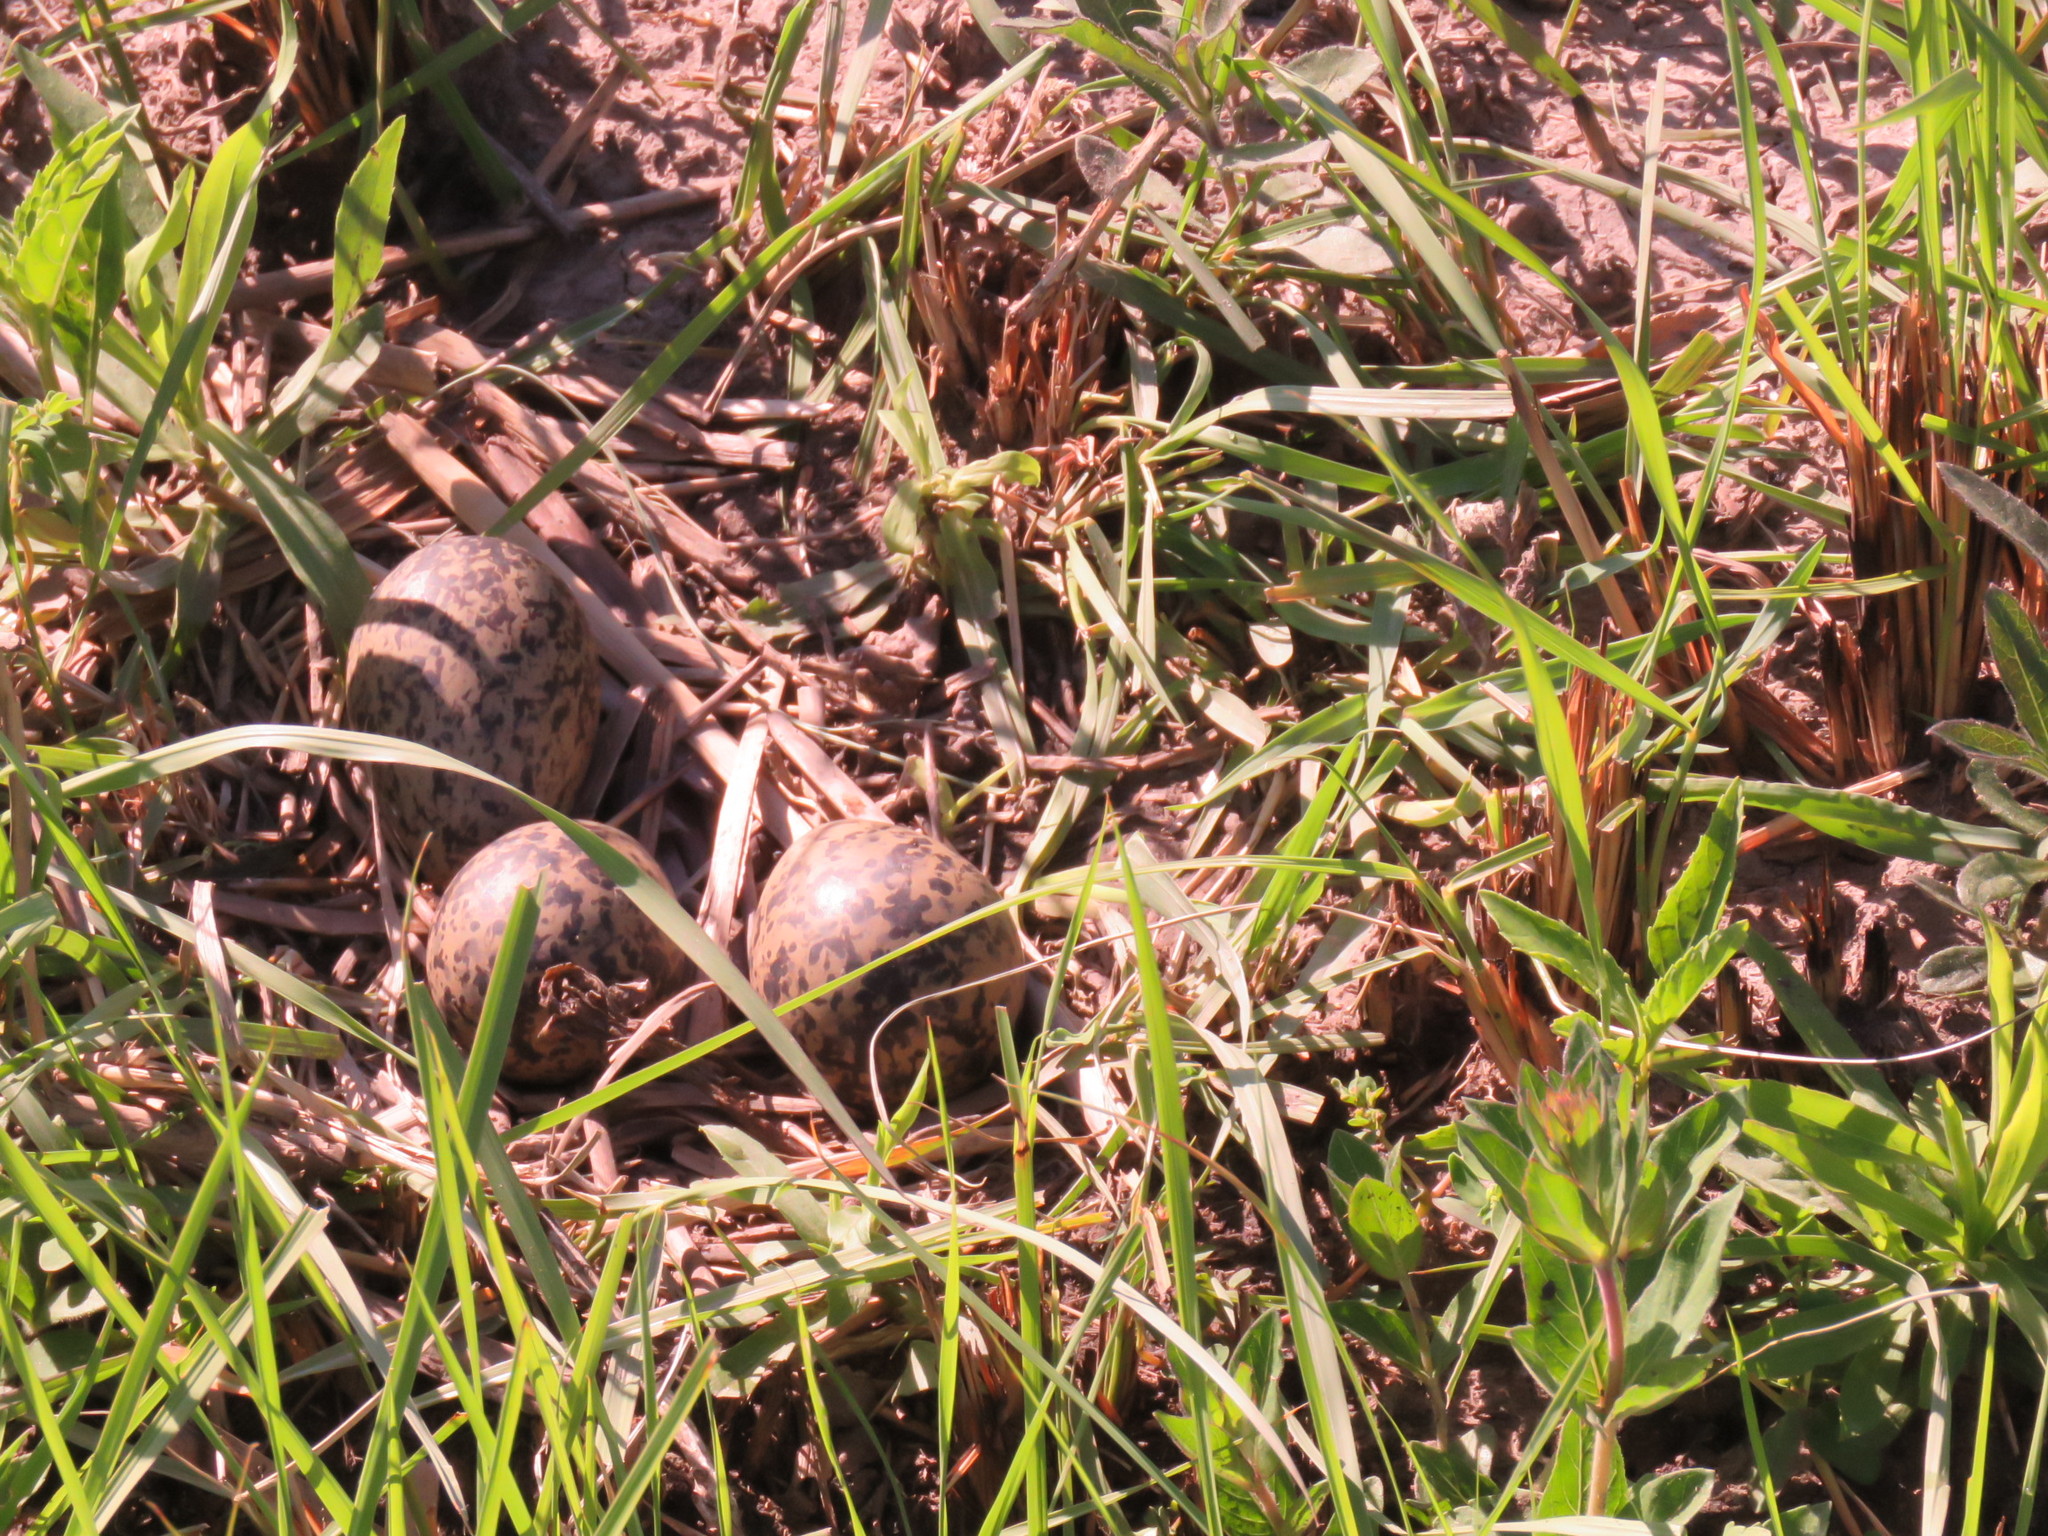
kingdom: Animalia
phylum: Chordata
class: Aves
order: Charadriiformes
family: Charadriidae
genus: Vanellus
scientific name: Vanellus chilensis
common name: Southern lapwing
